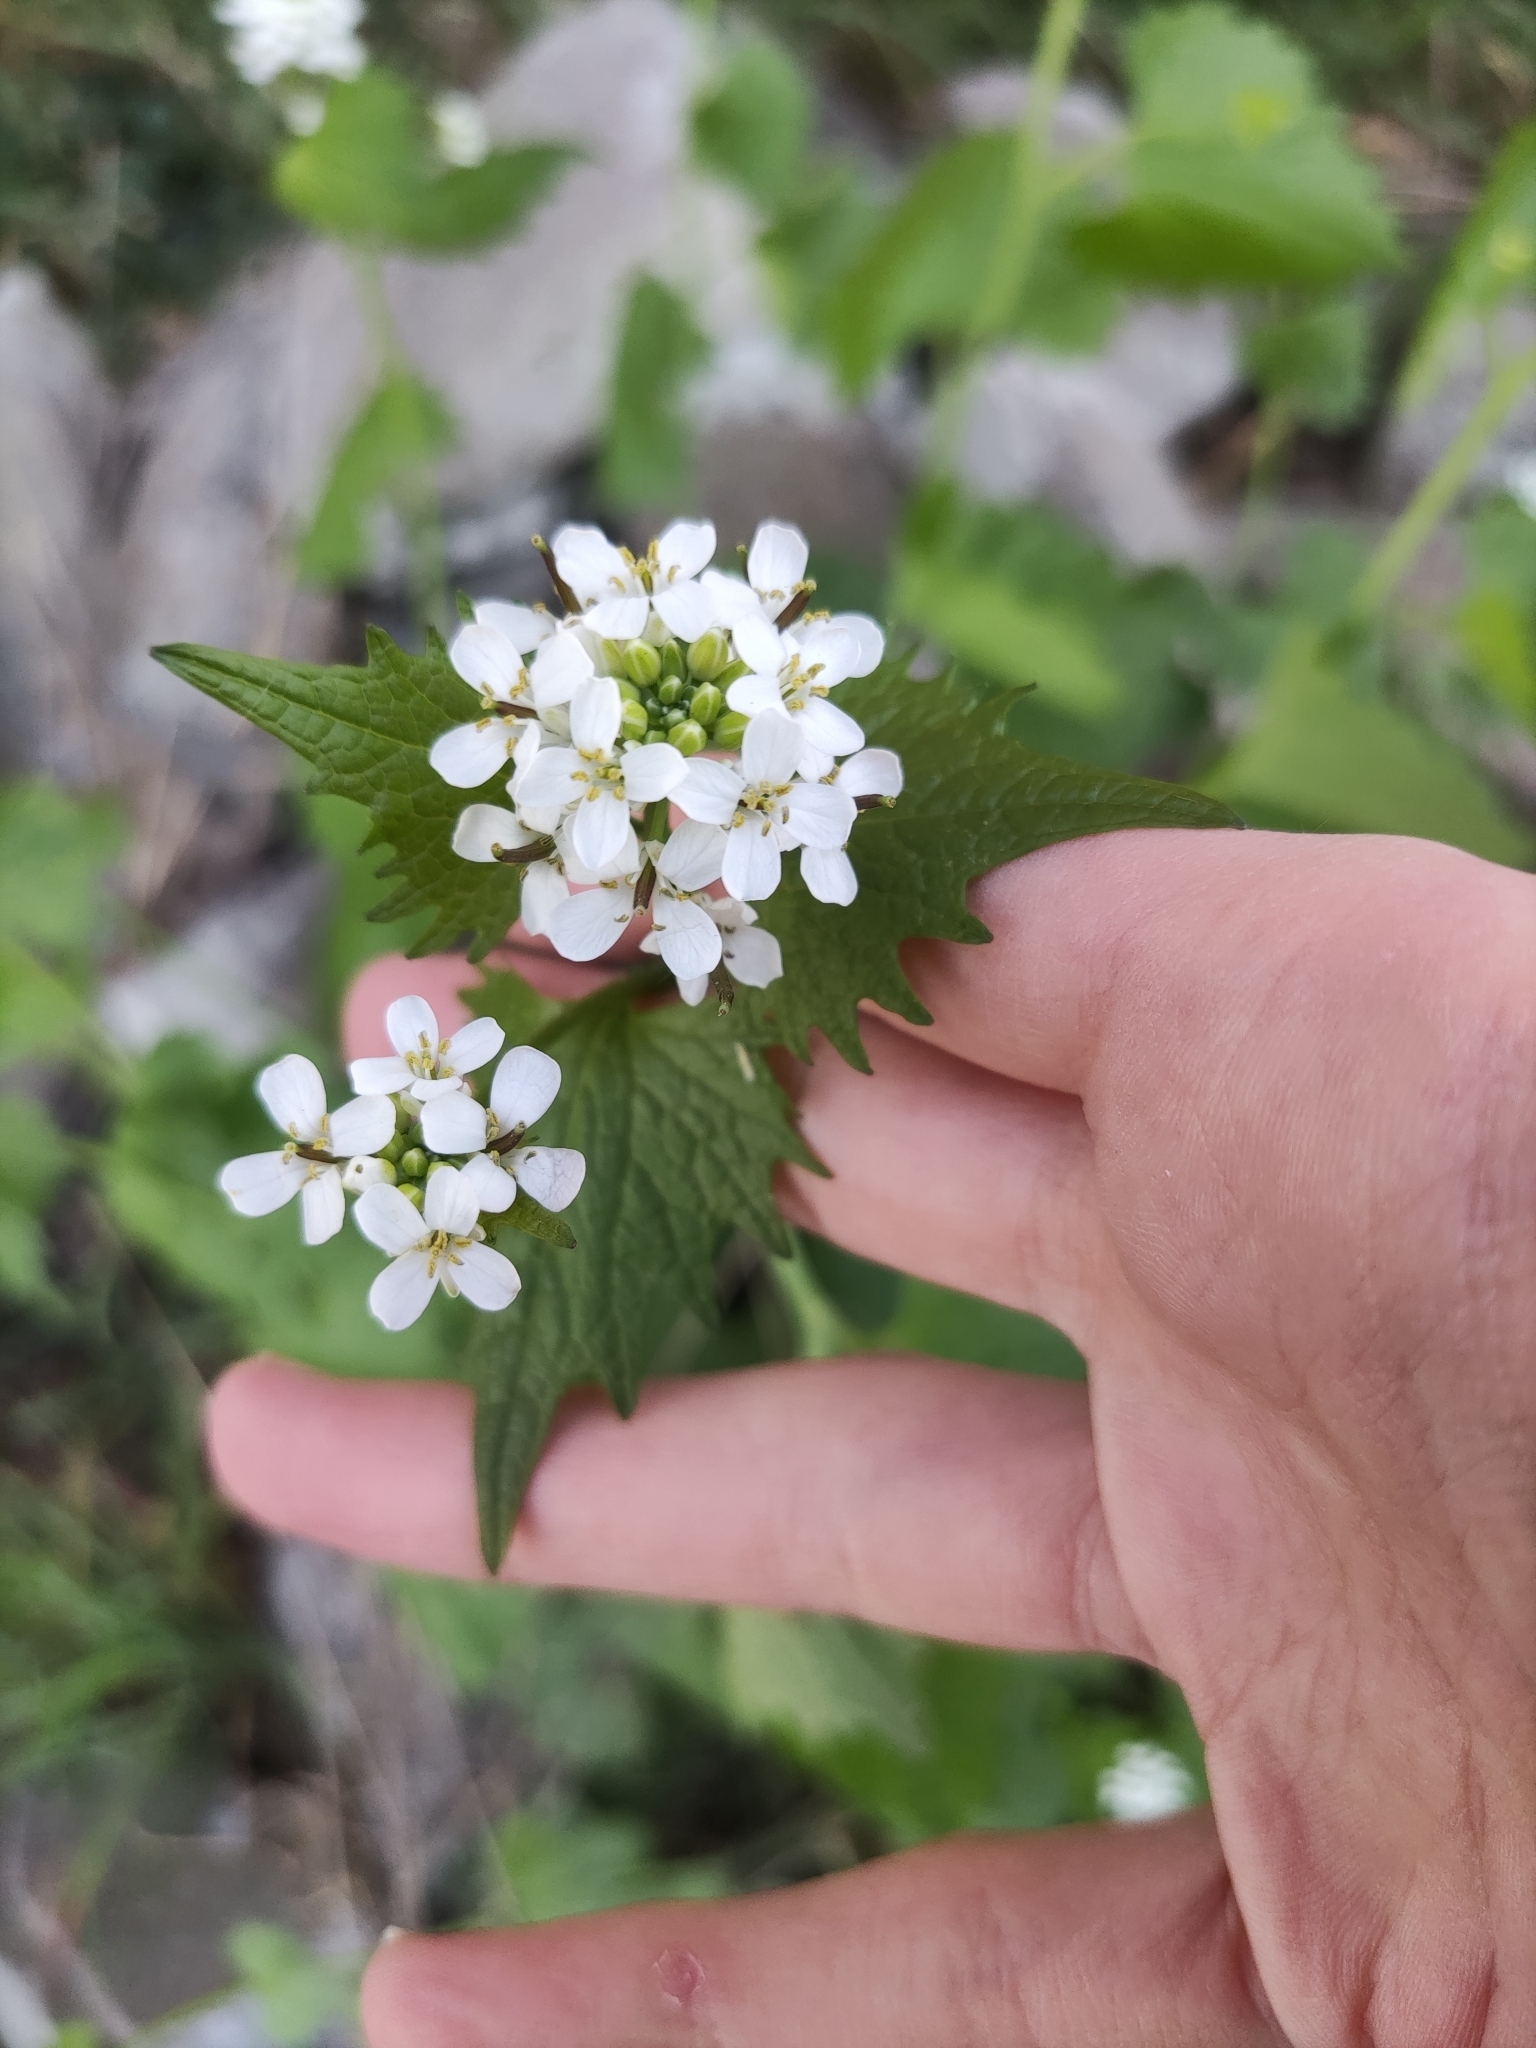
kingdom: Plantae
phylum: Tracheophyta
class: Magnoliopsida
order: Brassicales
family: Brassicaceae
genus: Alliaria
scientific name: Alliaria petiolata
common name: Garlic mustard
